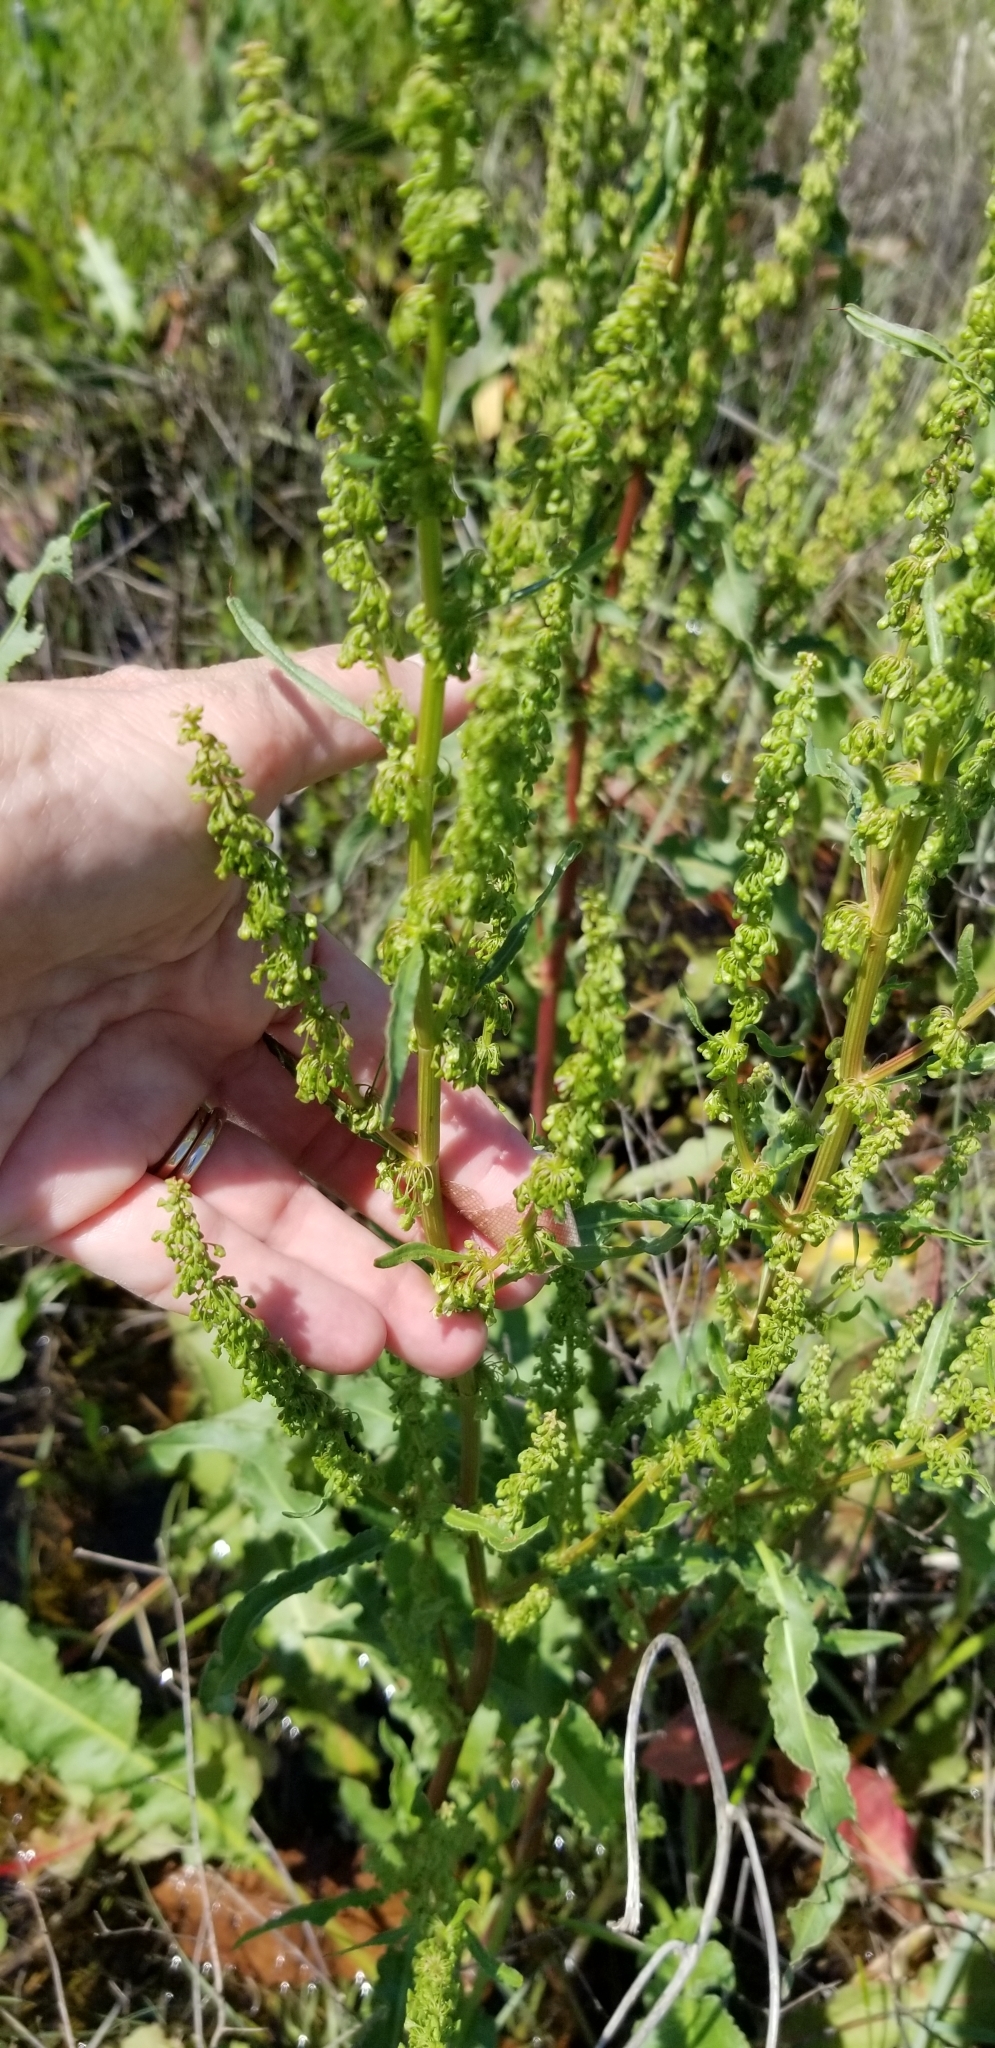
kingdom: Plantae
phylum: Tracheophyta
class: Magnoliopsida
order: Caryophyllales
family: Polygonaceae
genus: Rumex
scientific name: Rumex crispus
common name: Curled dock
